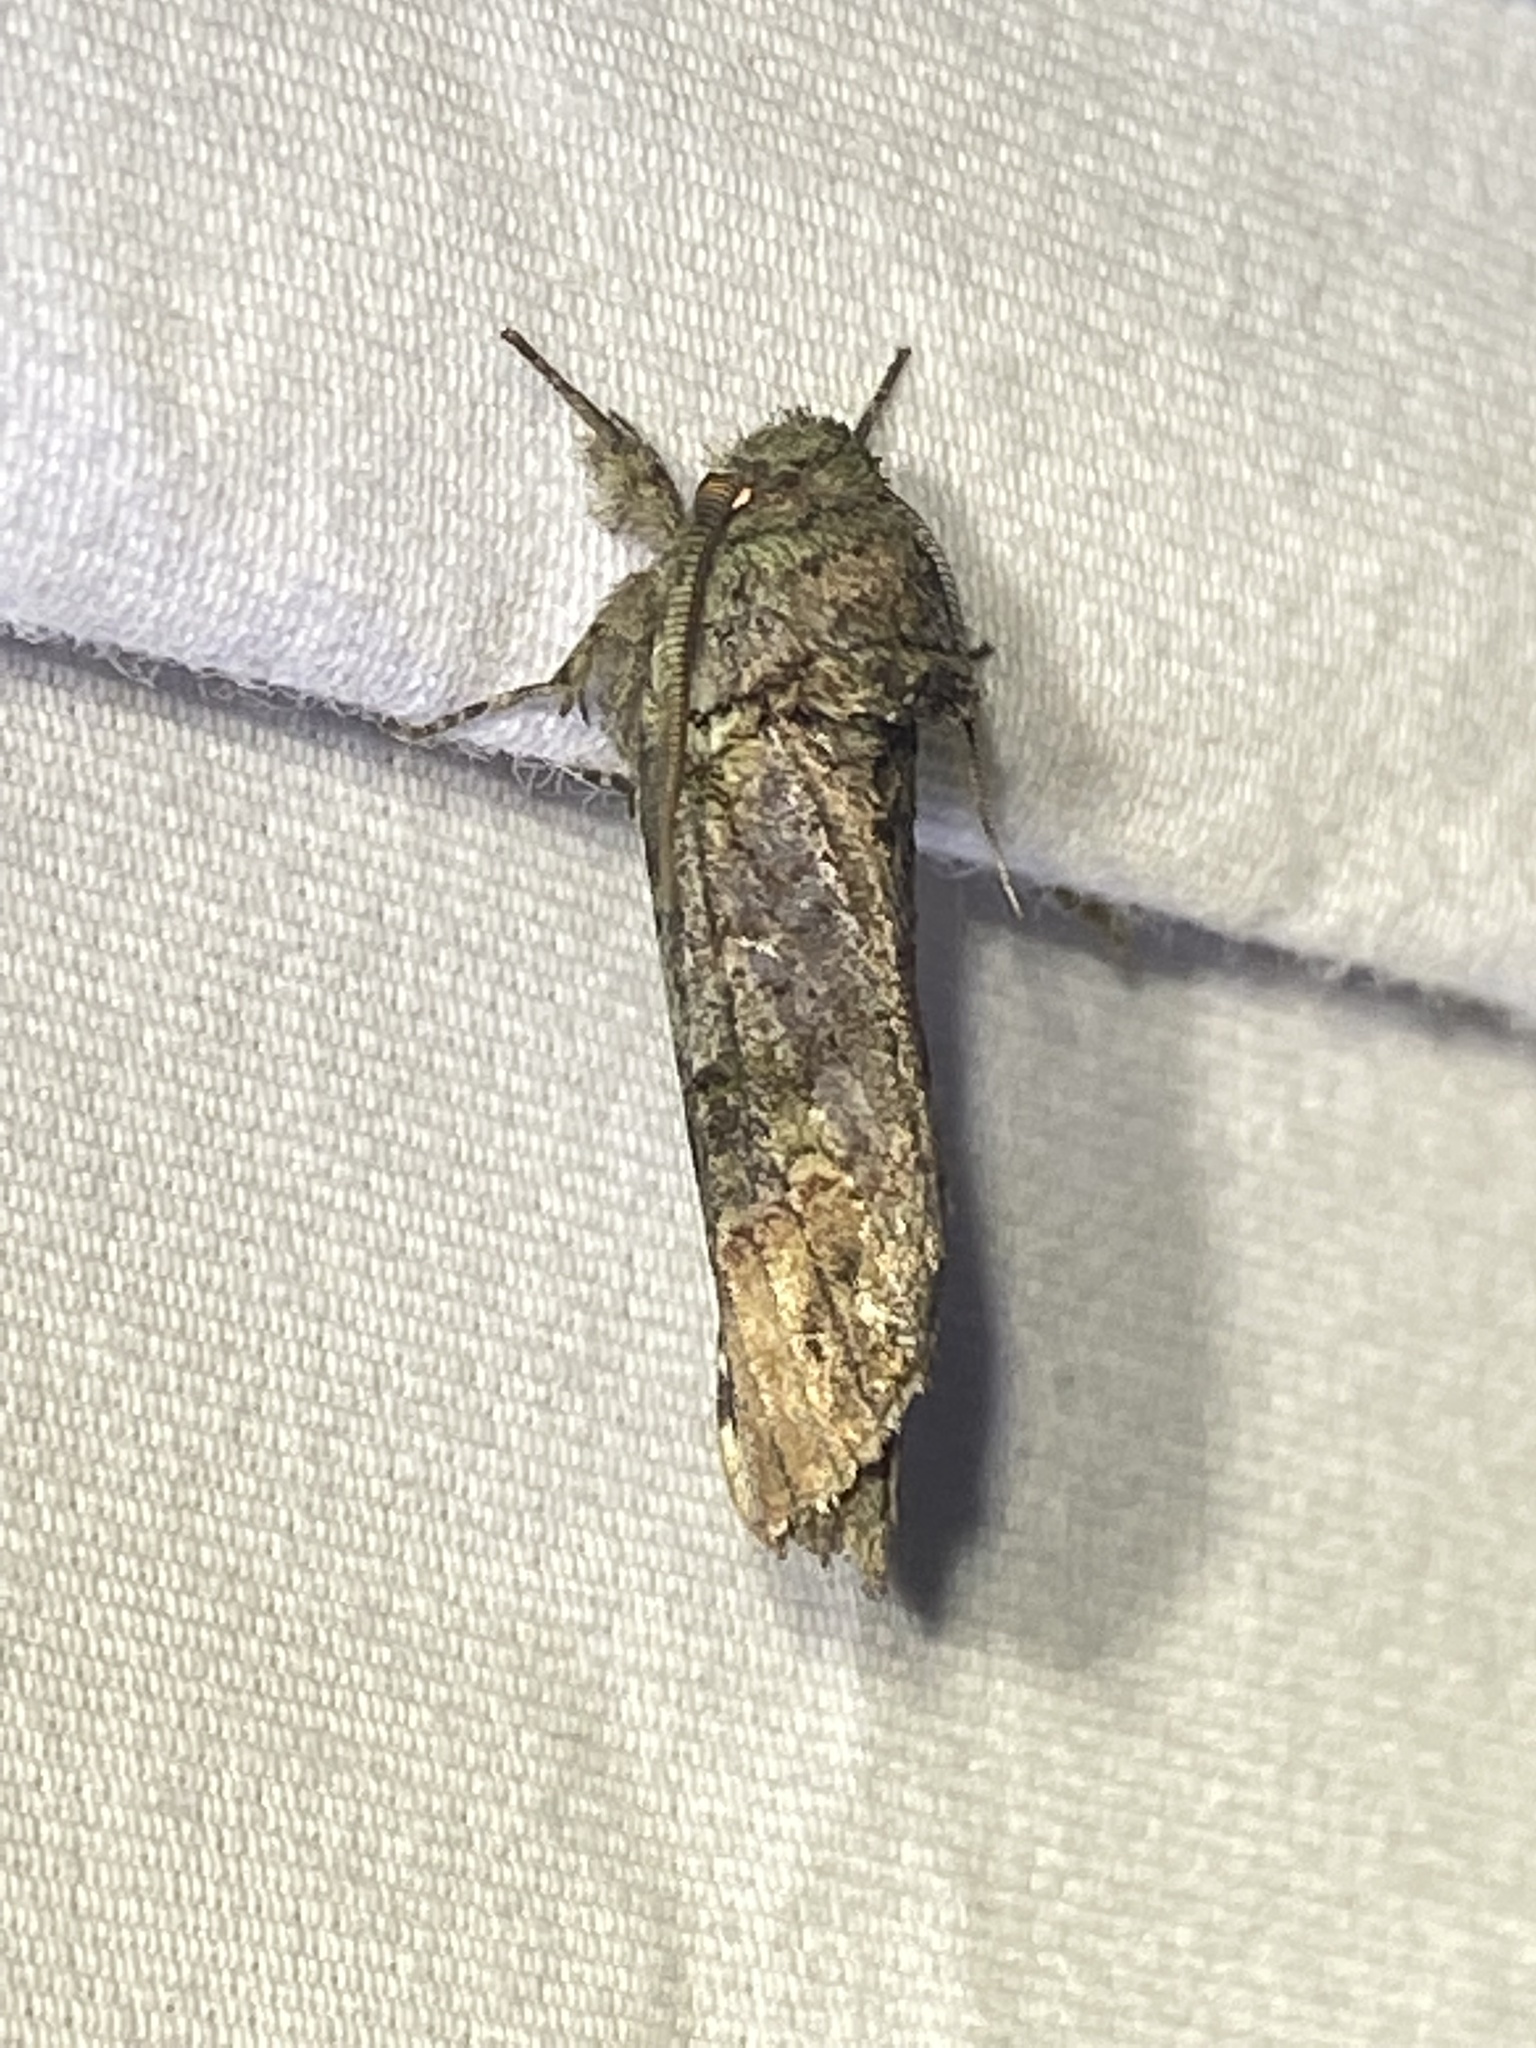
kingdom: Animalia
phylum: Arthropoda
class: Insecta
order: Lepidoptera
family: Notodontidae
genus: Schizura
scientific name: Schizura
